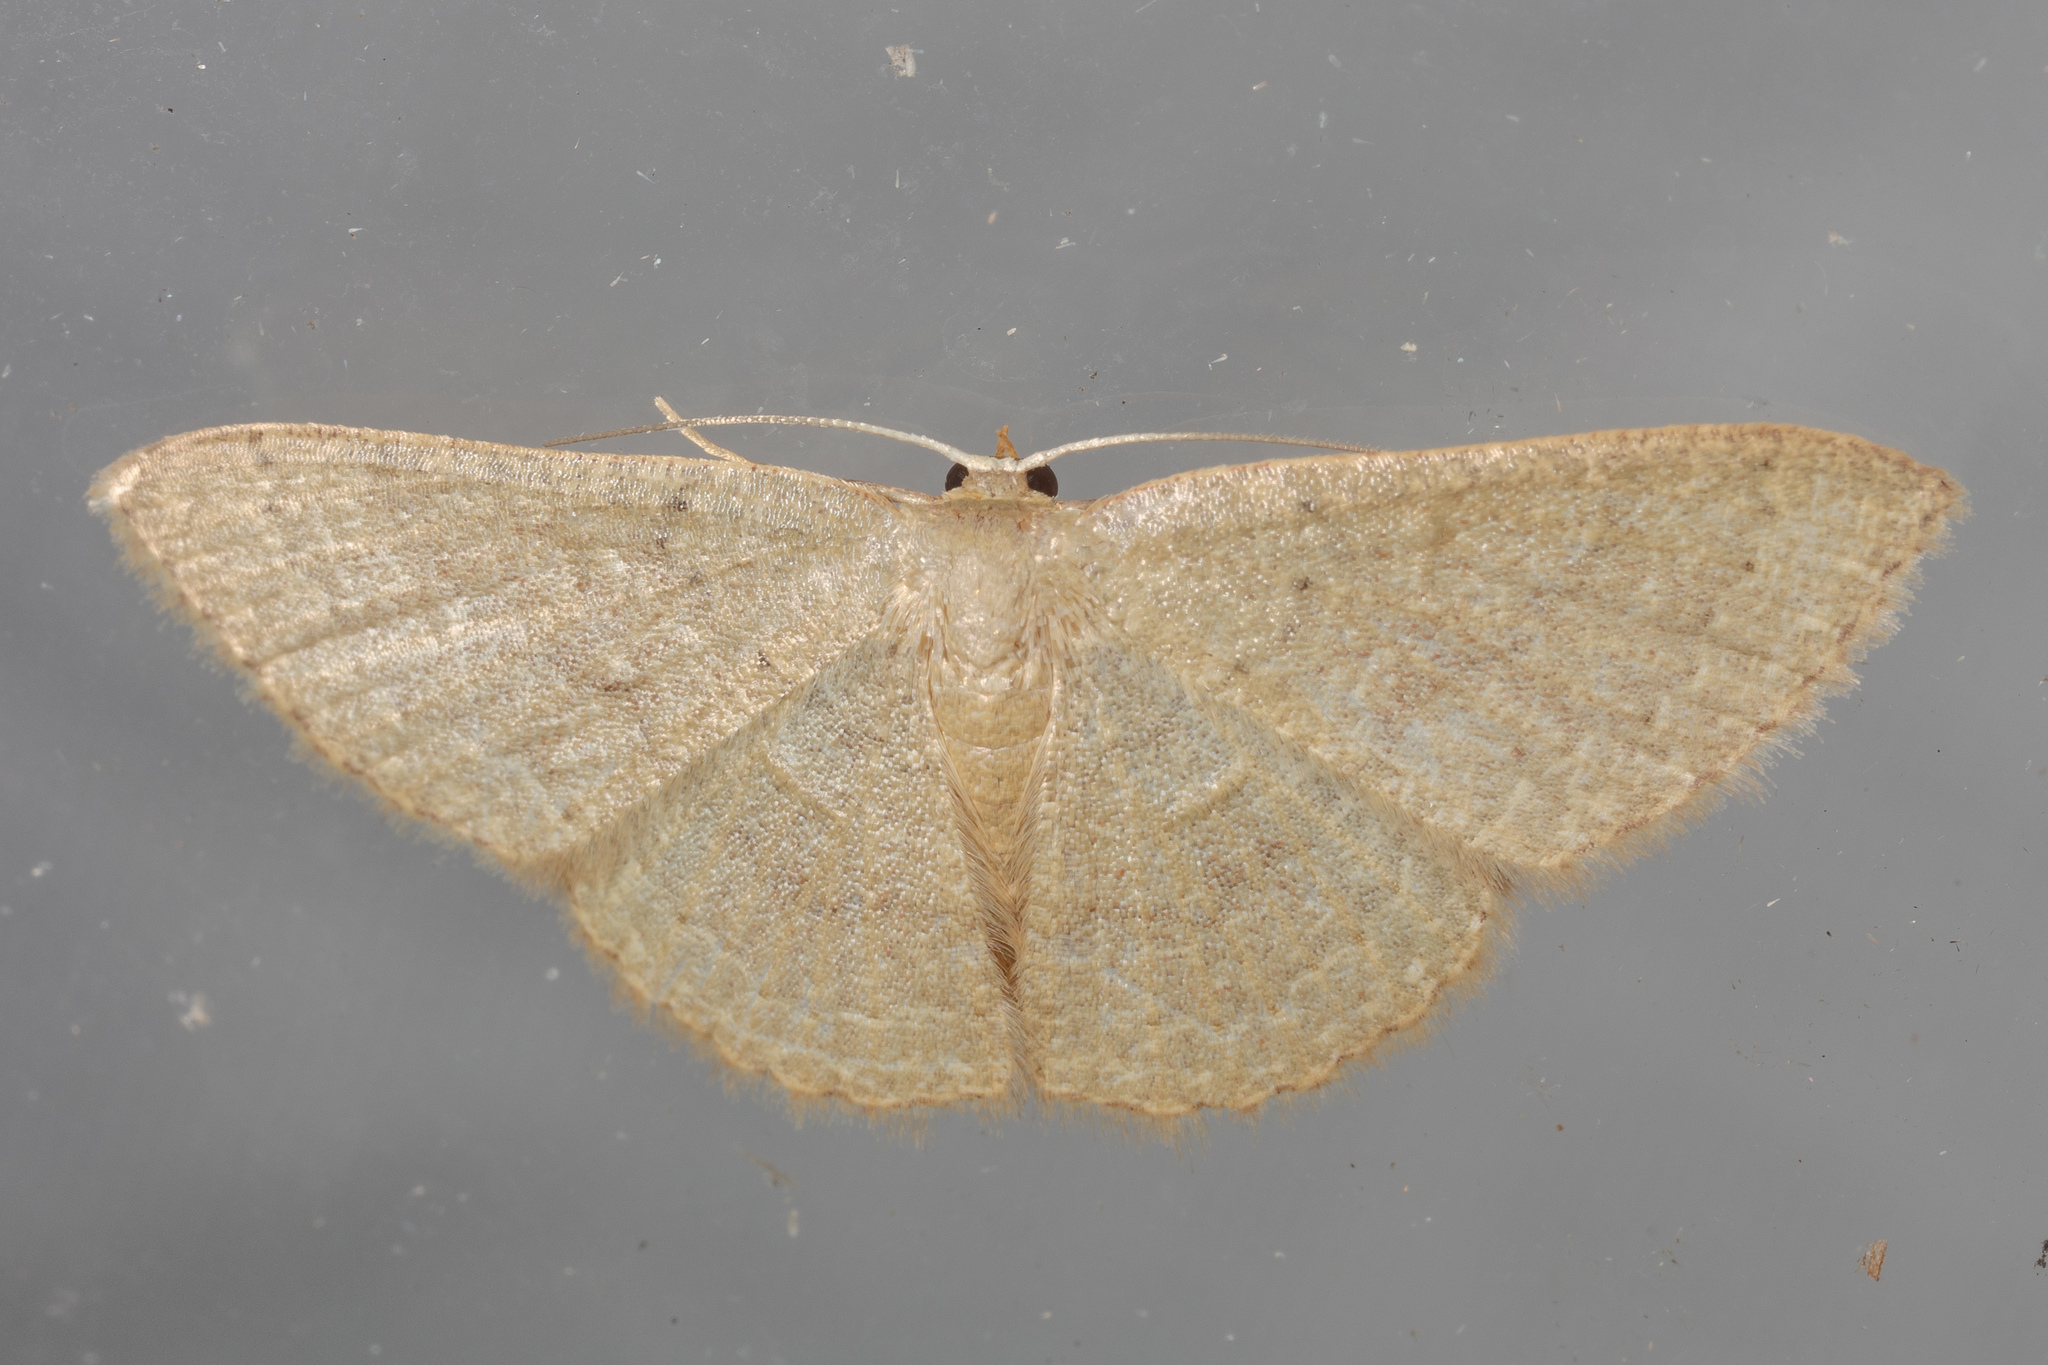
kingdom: Animalia
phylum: Arthropoda
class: Insecta
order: Lepidoptera
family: Geometridae
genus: Pleuroprucha
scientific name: Pleuroprucha insulsaria
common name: Common tan wave
